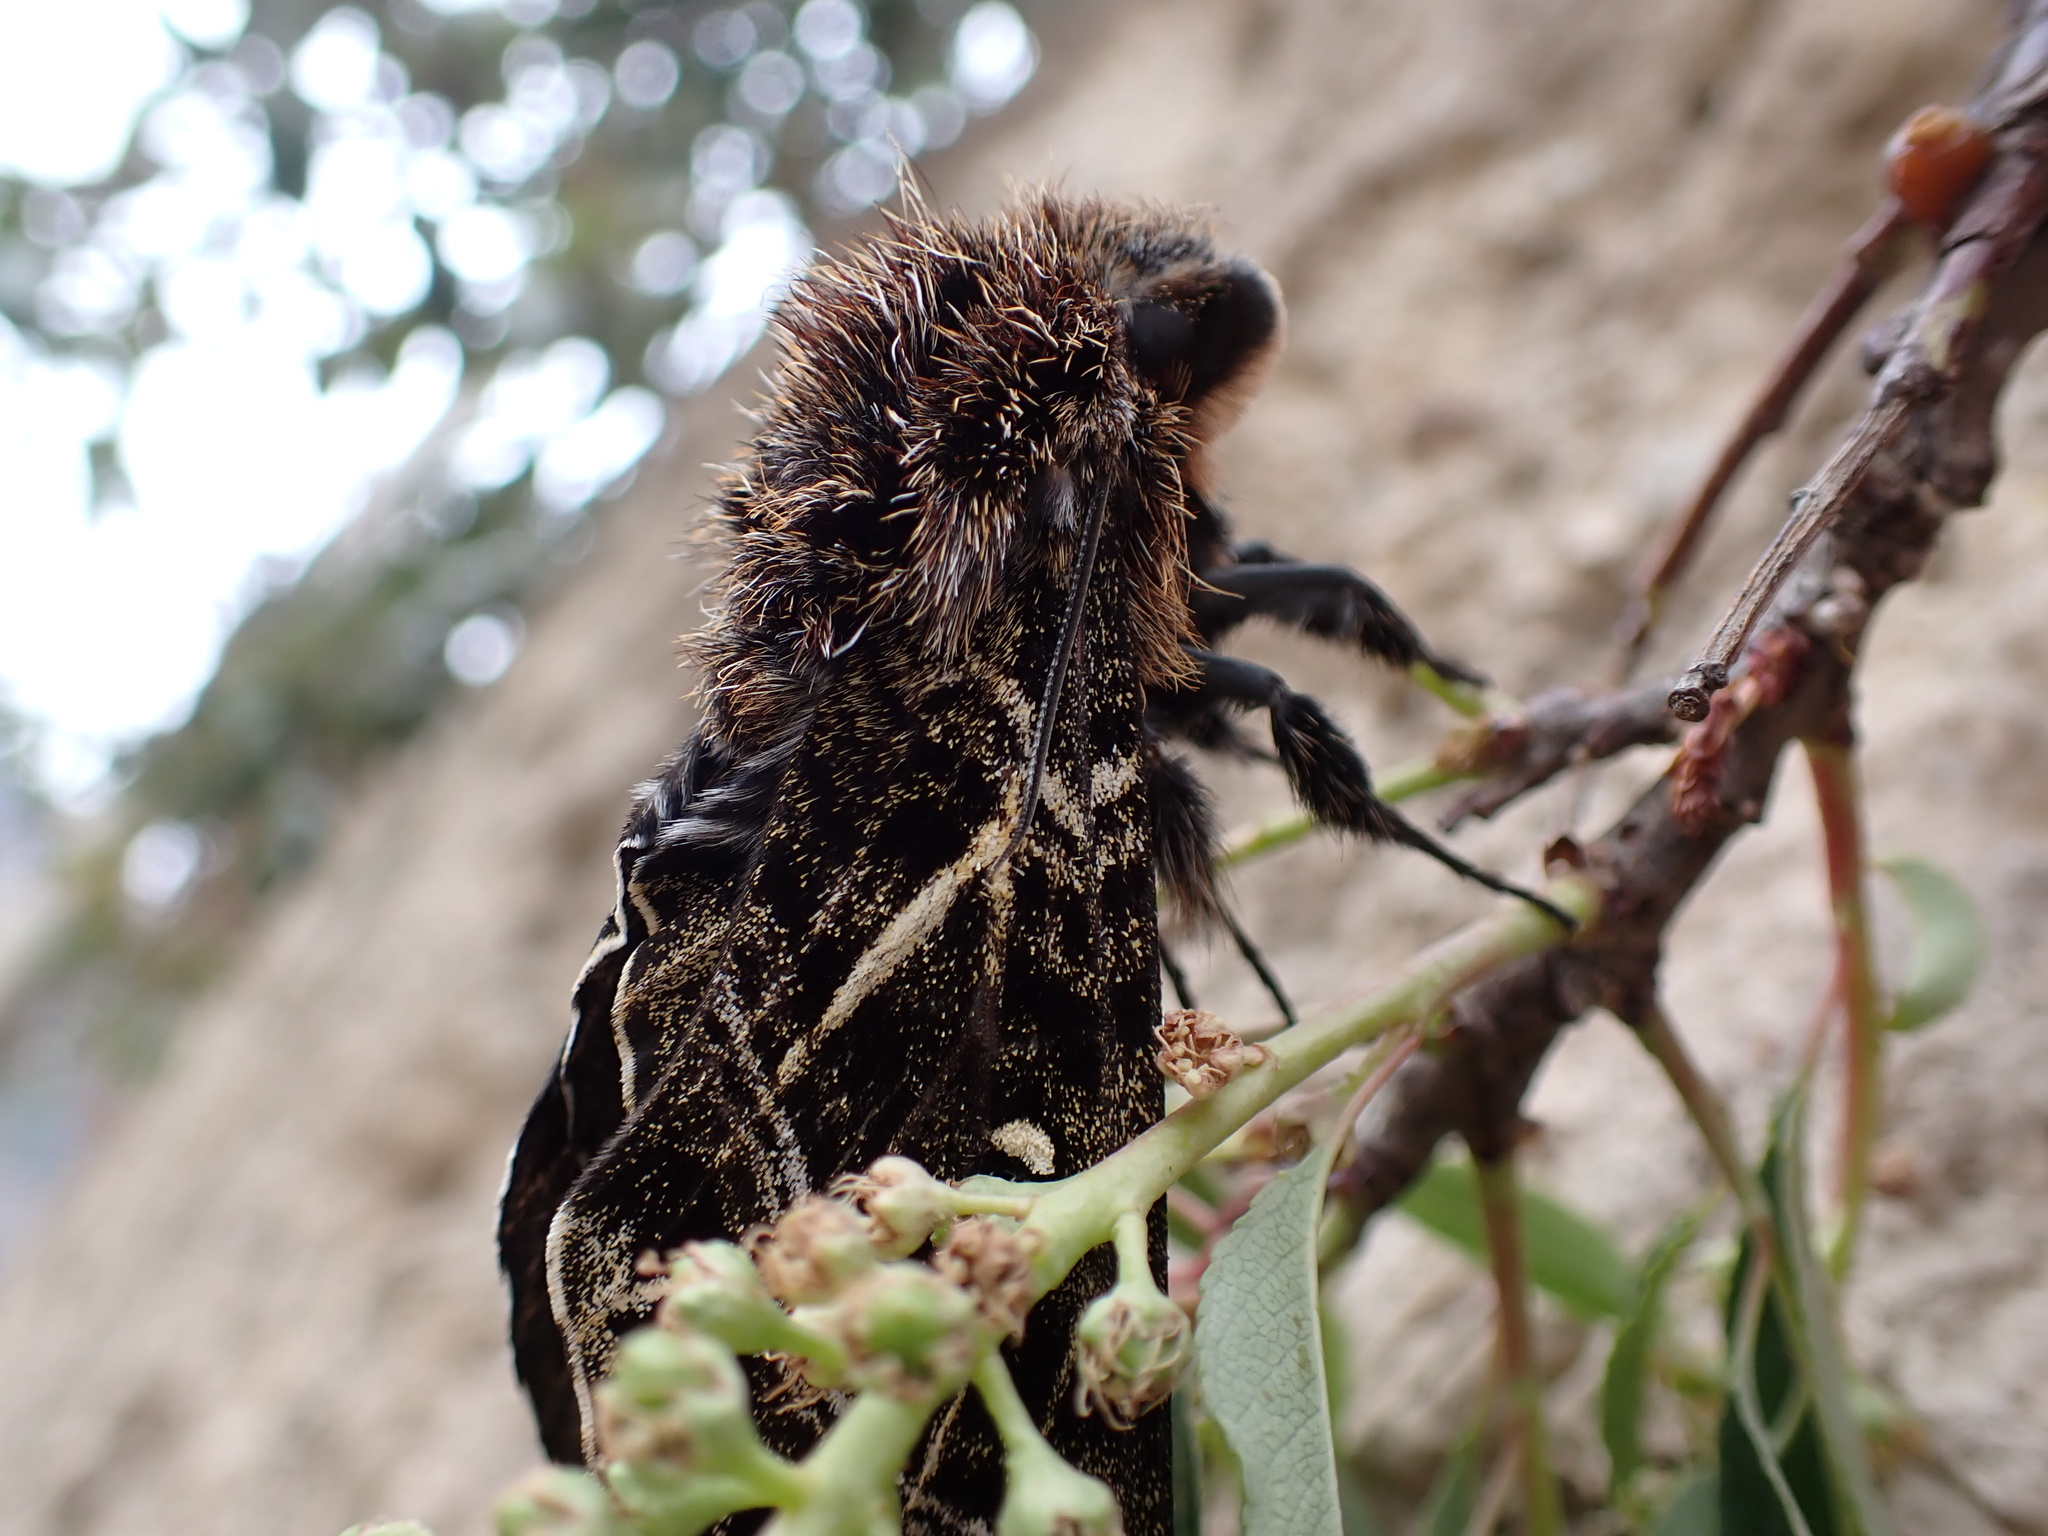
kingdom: Animalia
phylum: Arthropoda
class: Insecta
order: Lepidoptera
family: Sphingidae
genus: Euryglottis
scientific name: Euryglottis aper
